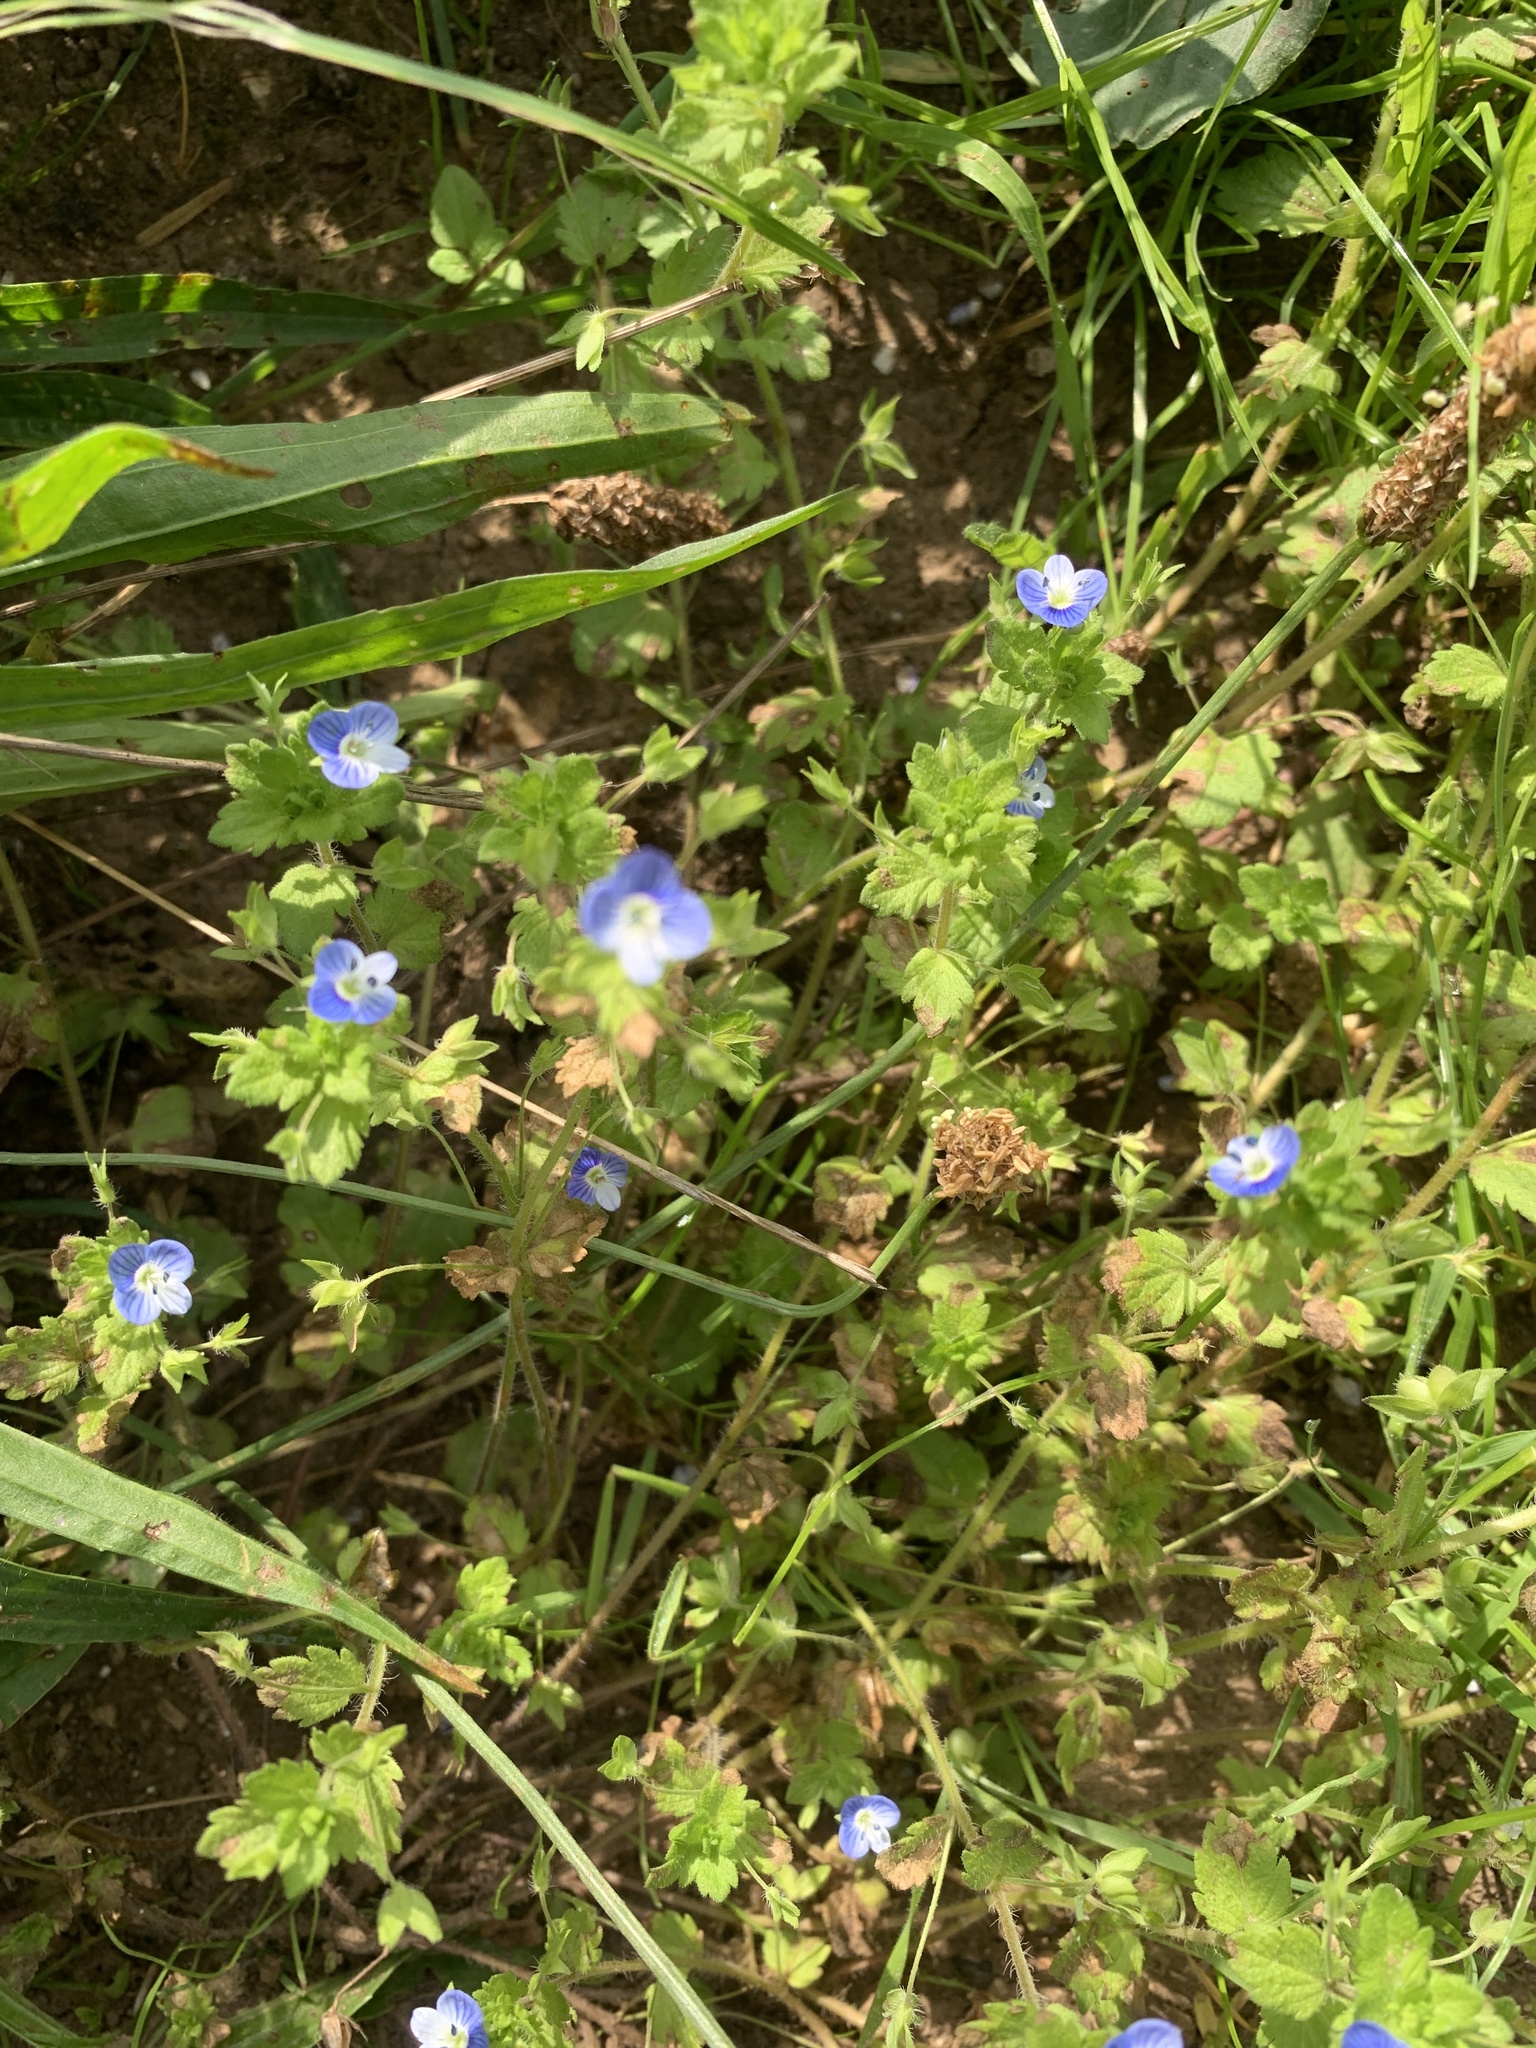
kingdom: Plantae
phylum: Tracheophyta
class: Magnoliopsida
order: Lamiales
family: Plantaginaceae
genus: Veronica
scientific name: Veronica persica
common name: Common field-speedwell
